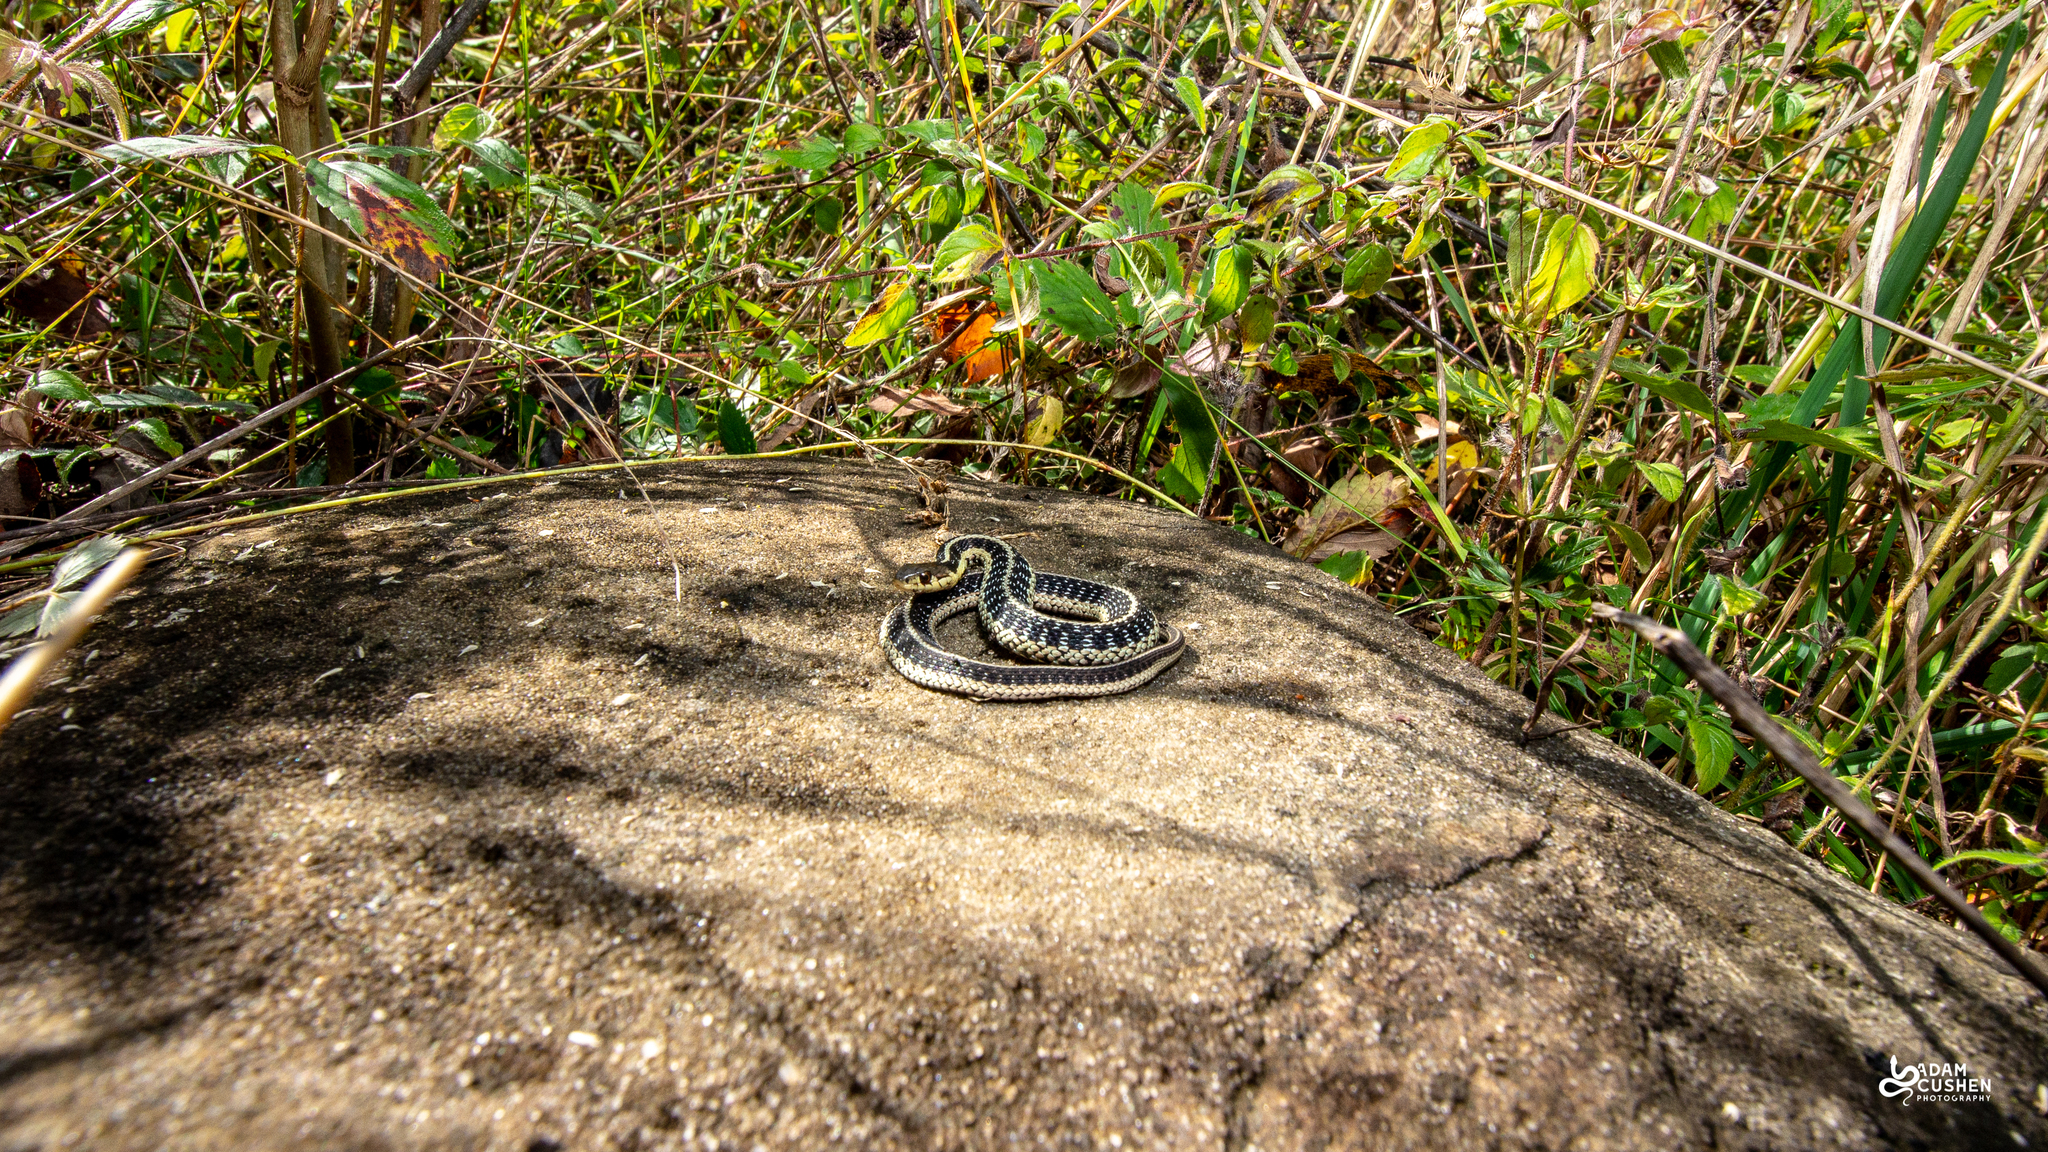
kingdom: Animalia
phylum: Chordata
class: Squamata
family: Colubridae
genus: Thamnophis
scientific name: Thamnophis sirtalis
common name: Common garter snake
